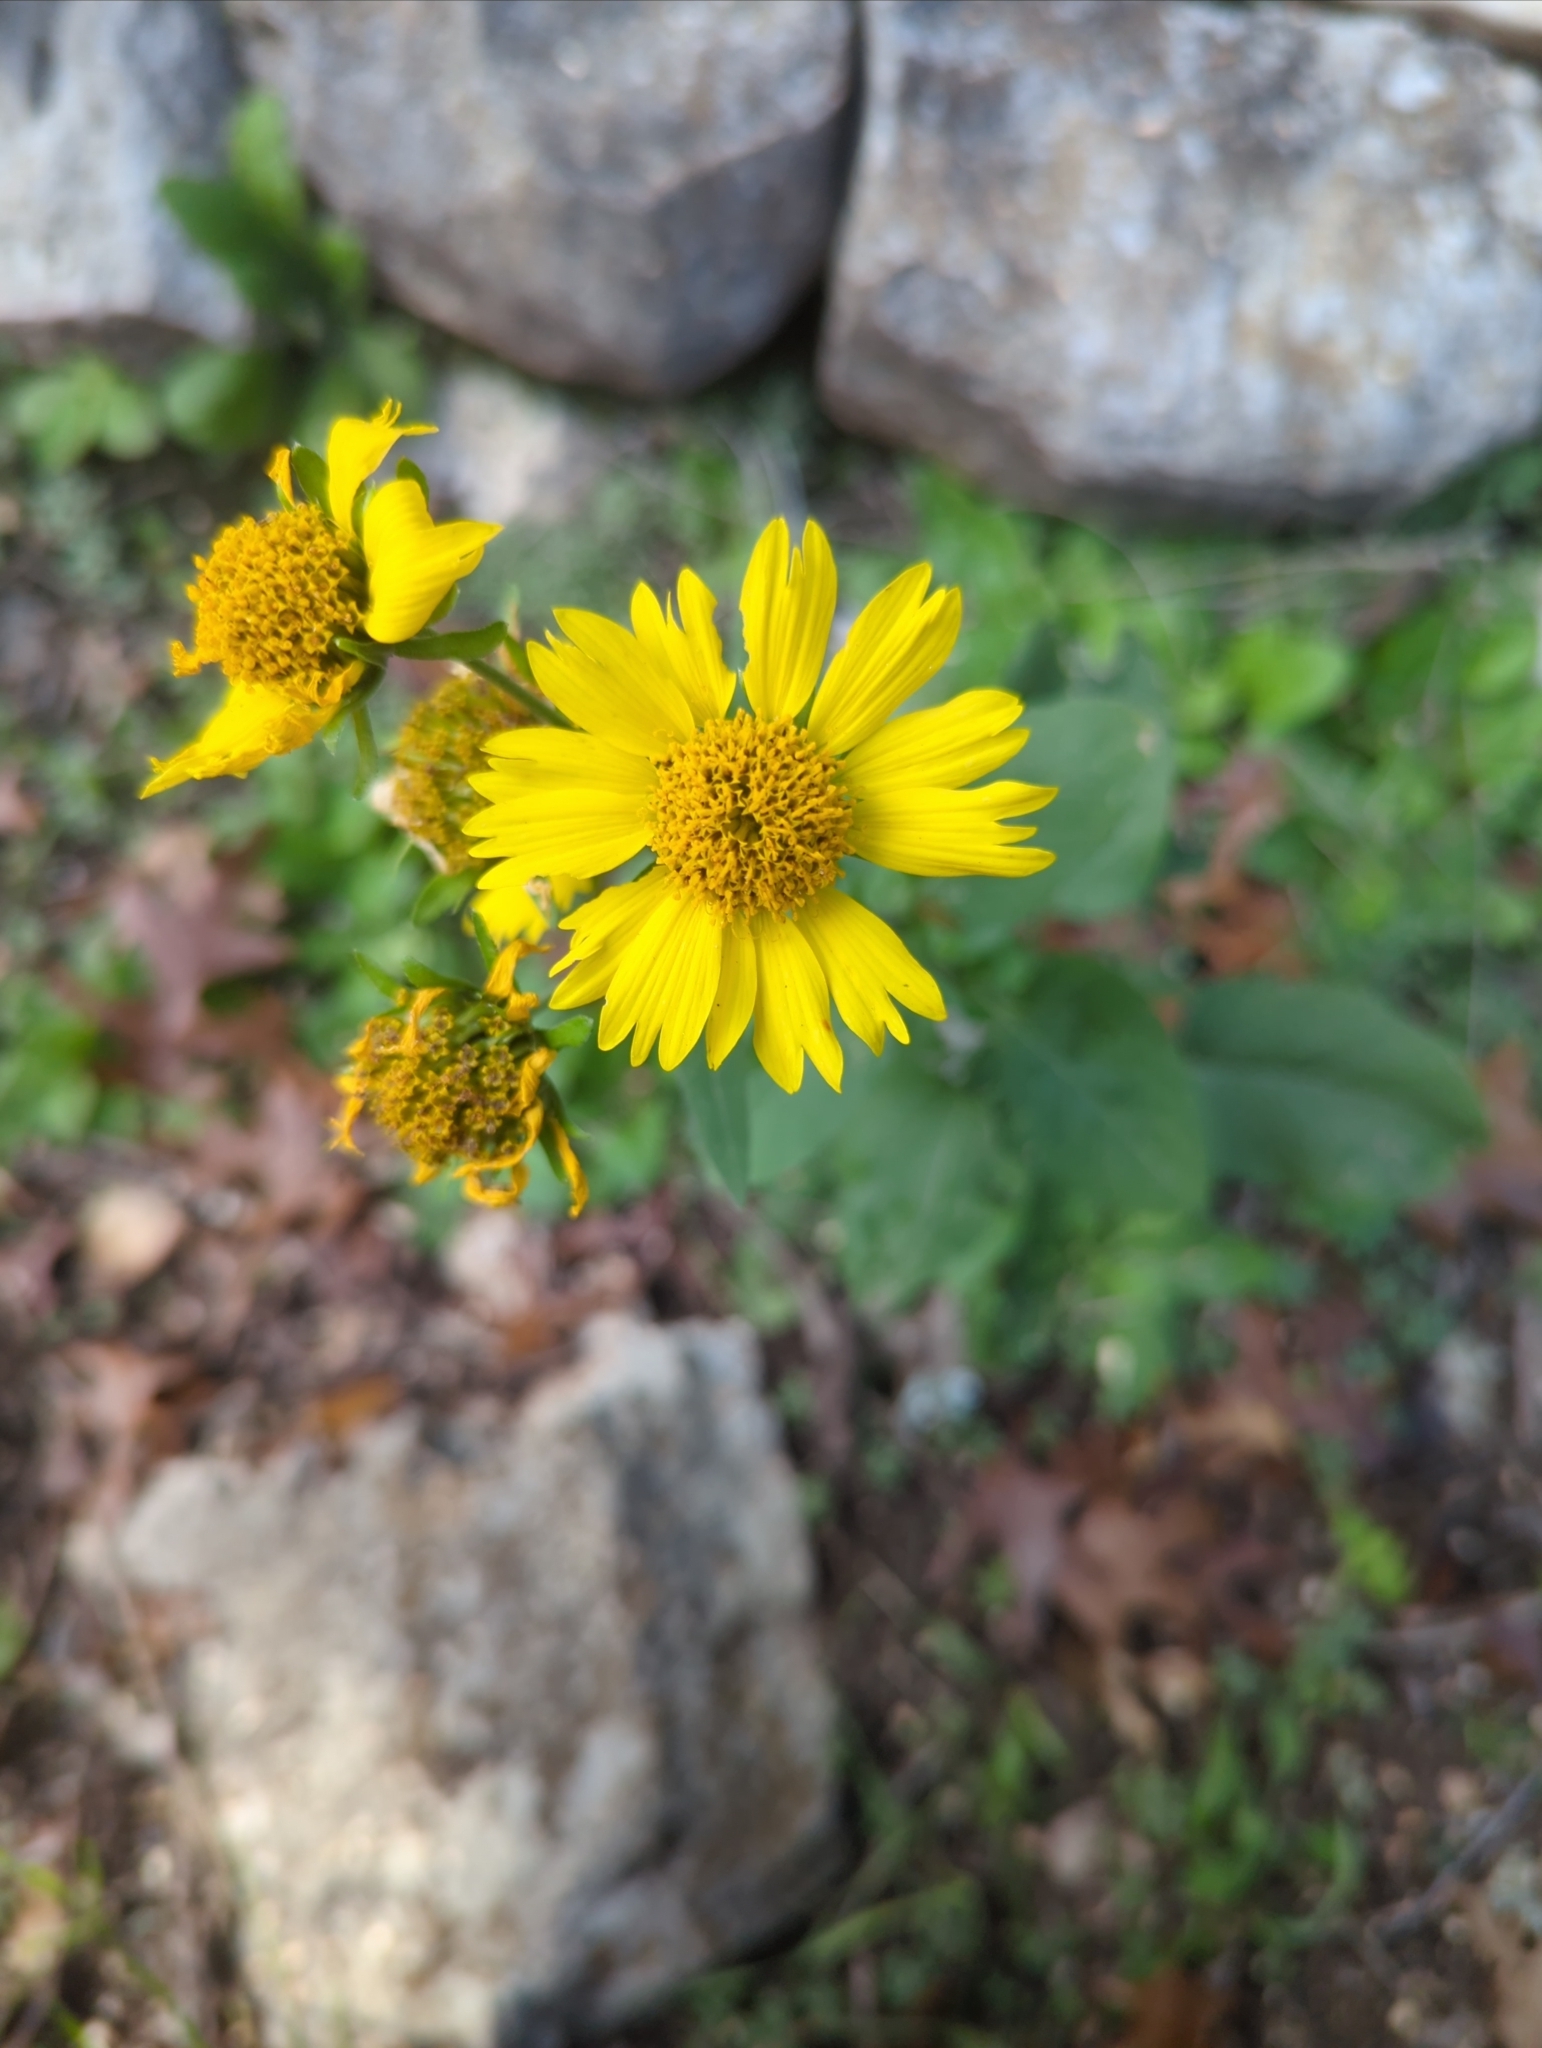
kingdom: Plantae
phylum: Tracheophyta
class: Magnoliopsida
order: Asterales
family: Asteraceae
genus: Verbesina
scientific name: Verbesina encelioides
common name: Golden crownbeard
